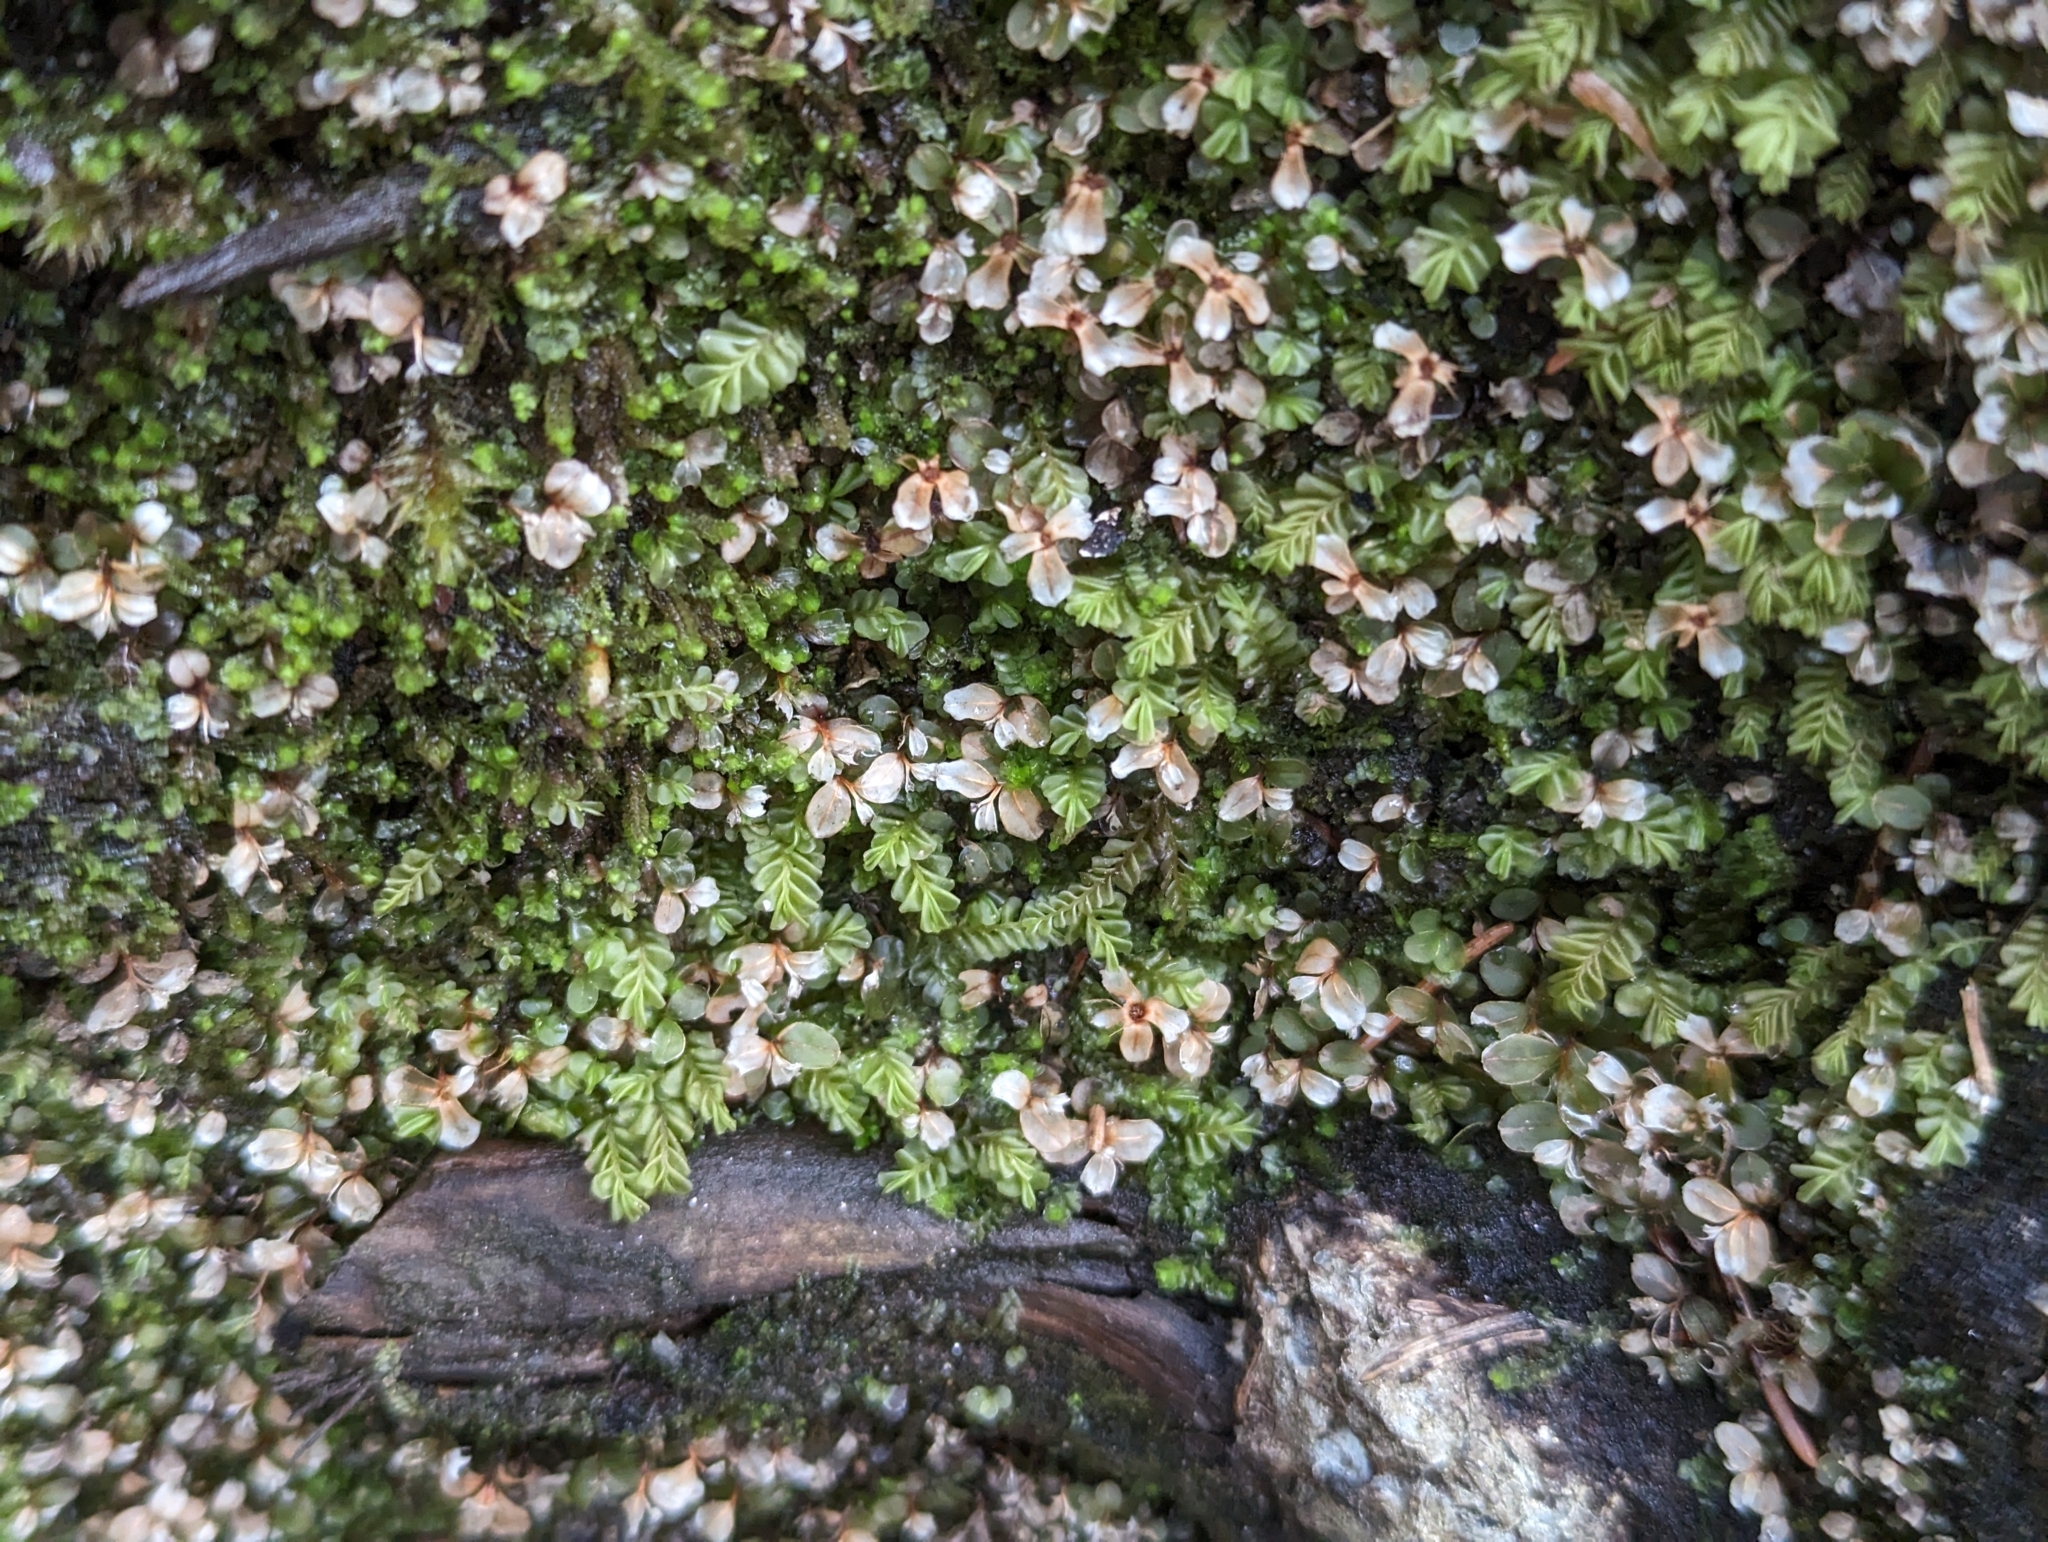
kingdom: Plantae
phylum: Marchantiophyta
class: Jungermanniopsida
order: Jungermanniales
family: Plagiochilaceae
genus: Plagiochila
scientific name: Plagiochila porelloides
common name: Lesser featherwort
